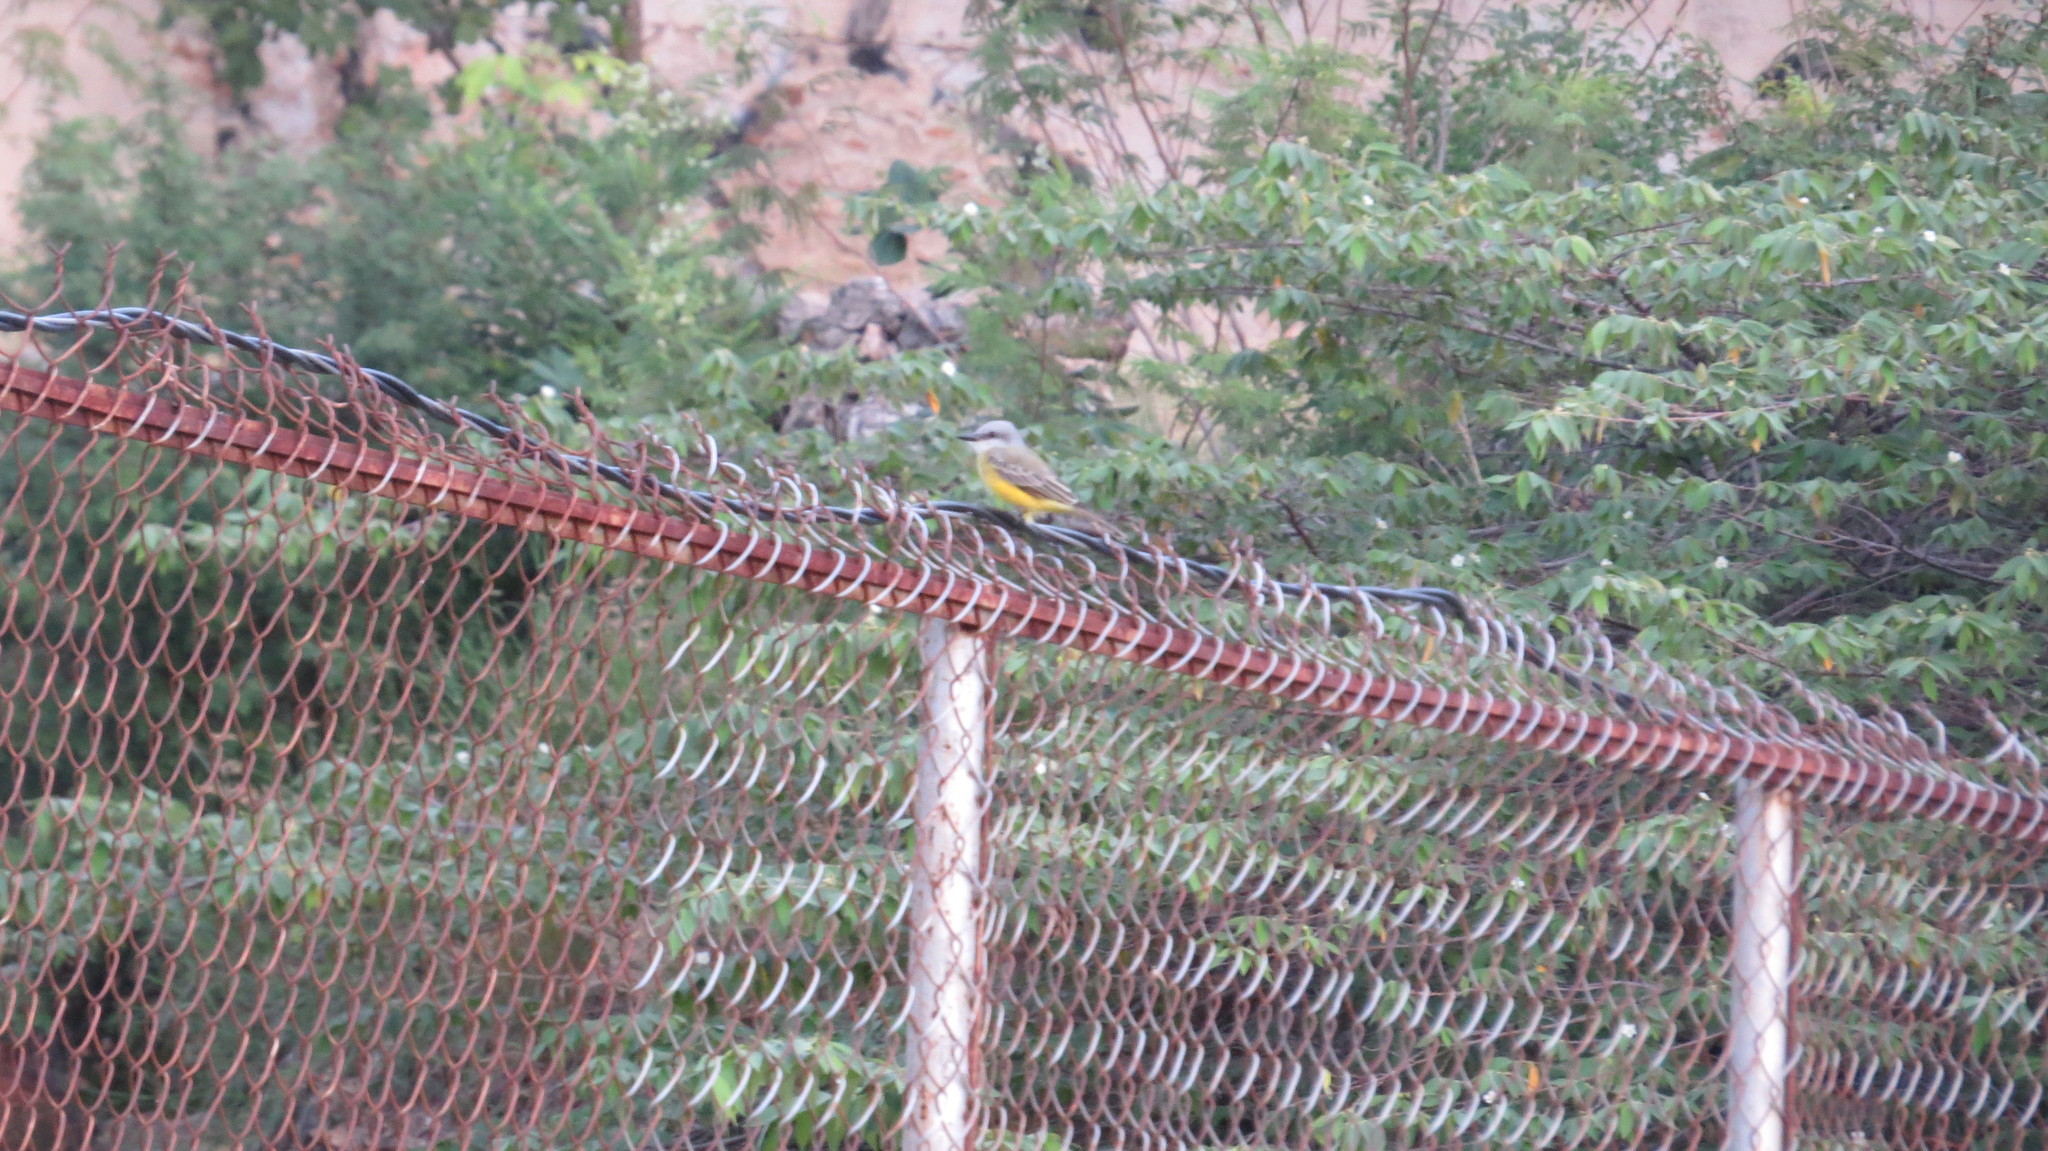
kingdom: Animalia
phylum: Chordata
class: Aves
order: Passeriformes
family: Tyrannidae
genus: Tyrannus
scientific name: Tyrannus melancholicus
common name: Tropical kingbird
